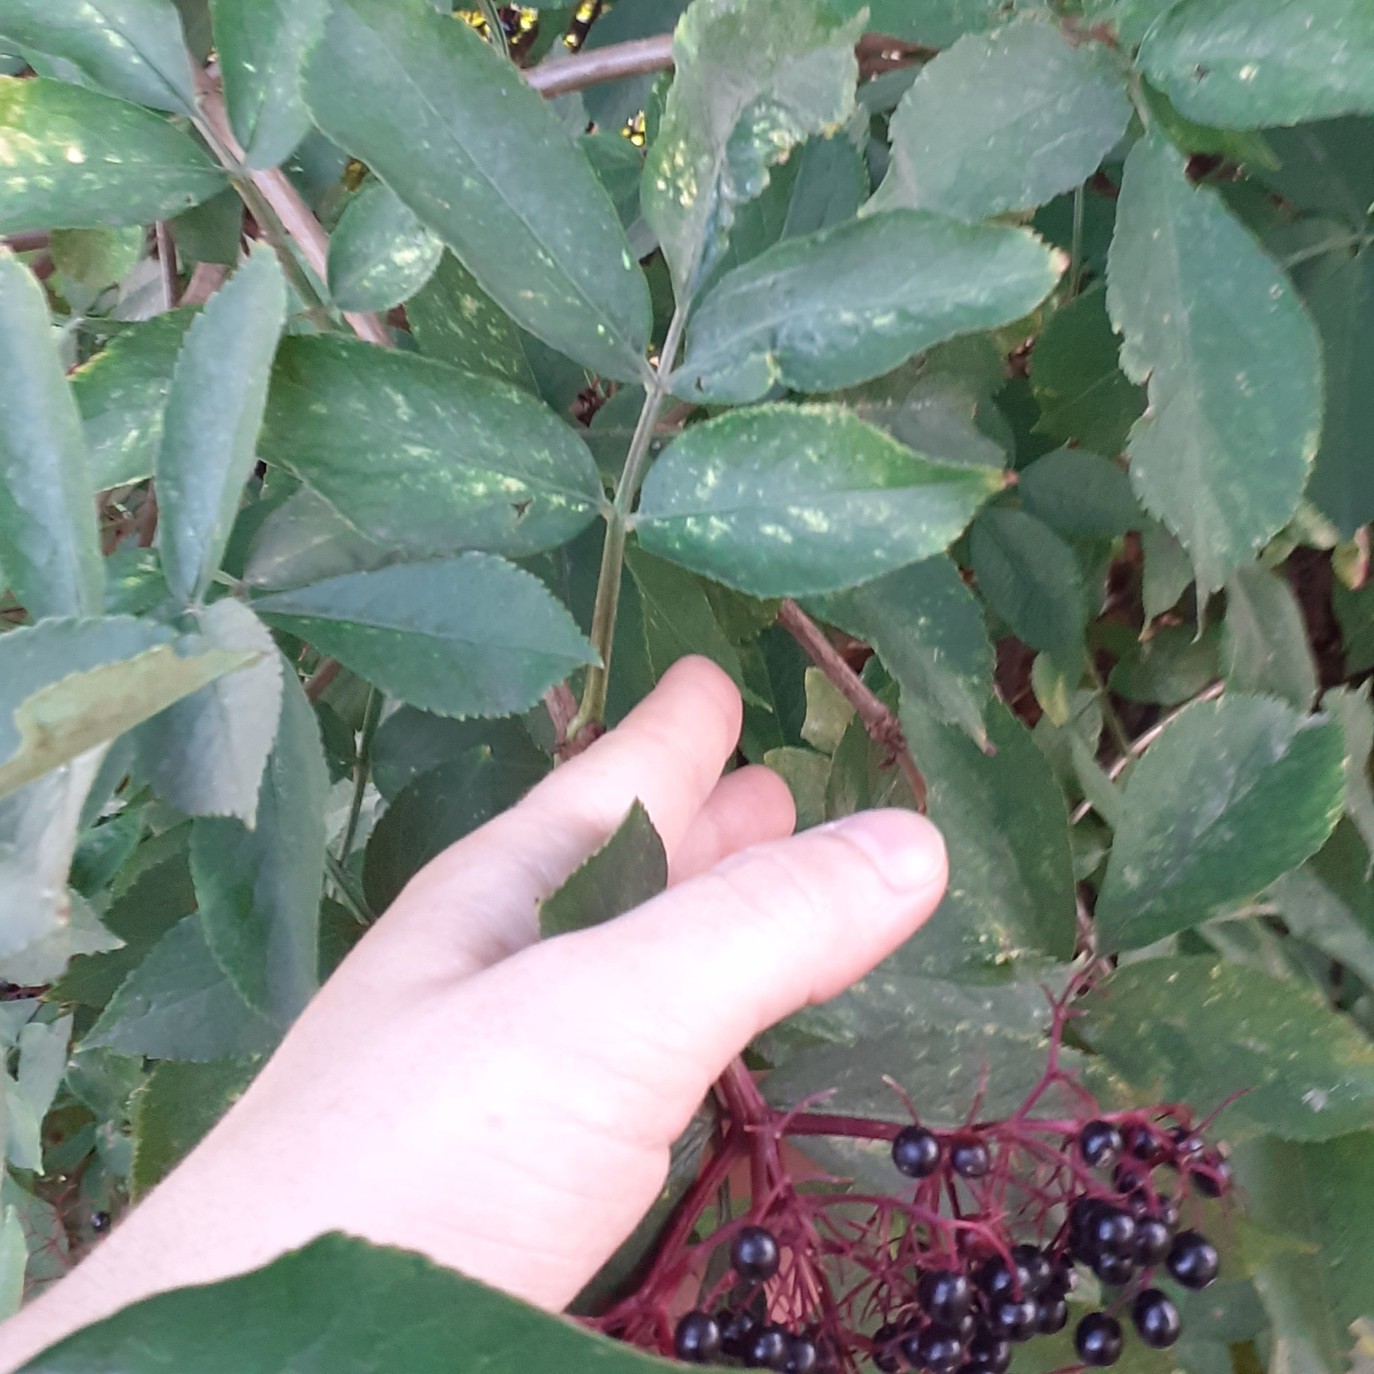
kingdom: Plantae
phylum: Tracheophyta
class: Magnoliopsida
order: Dipsacales
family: Viburnaceae
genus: Sambucus
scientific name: Sambucus nigra
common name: Elder
